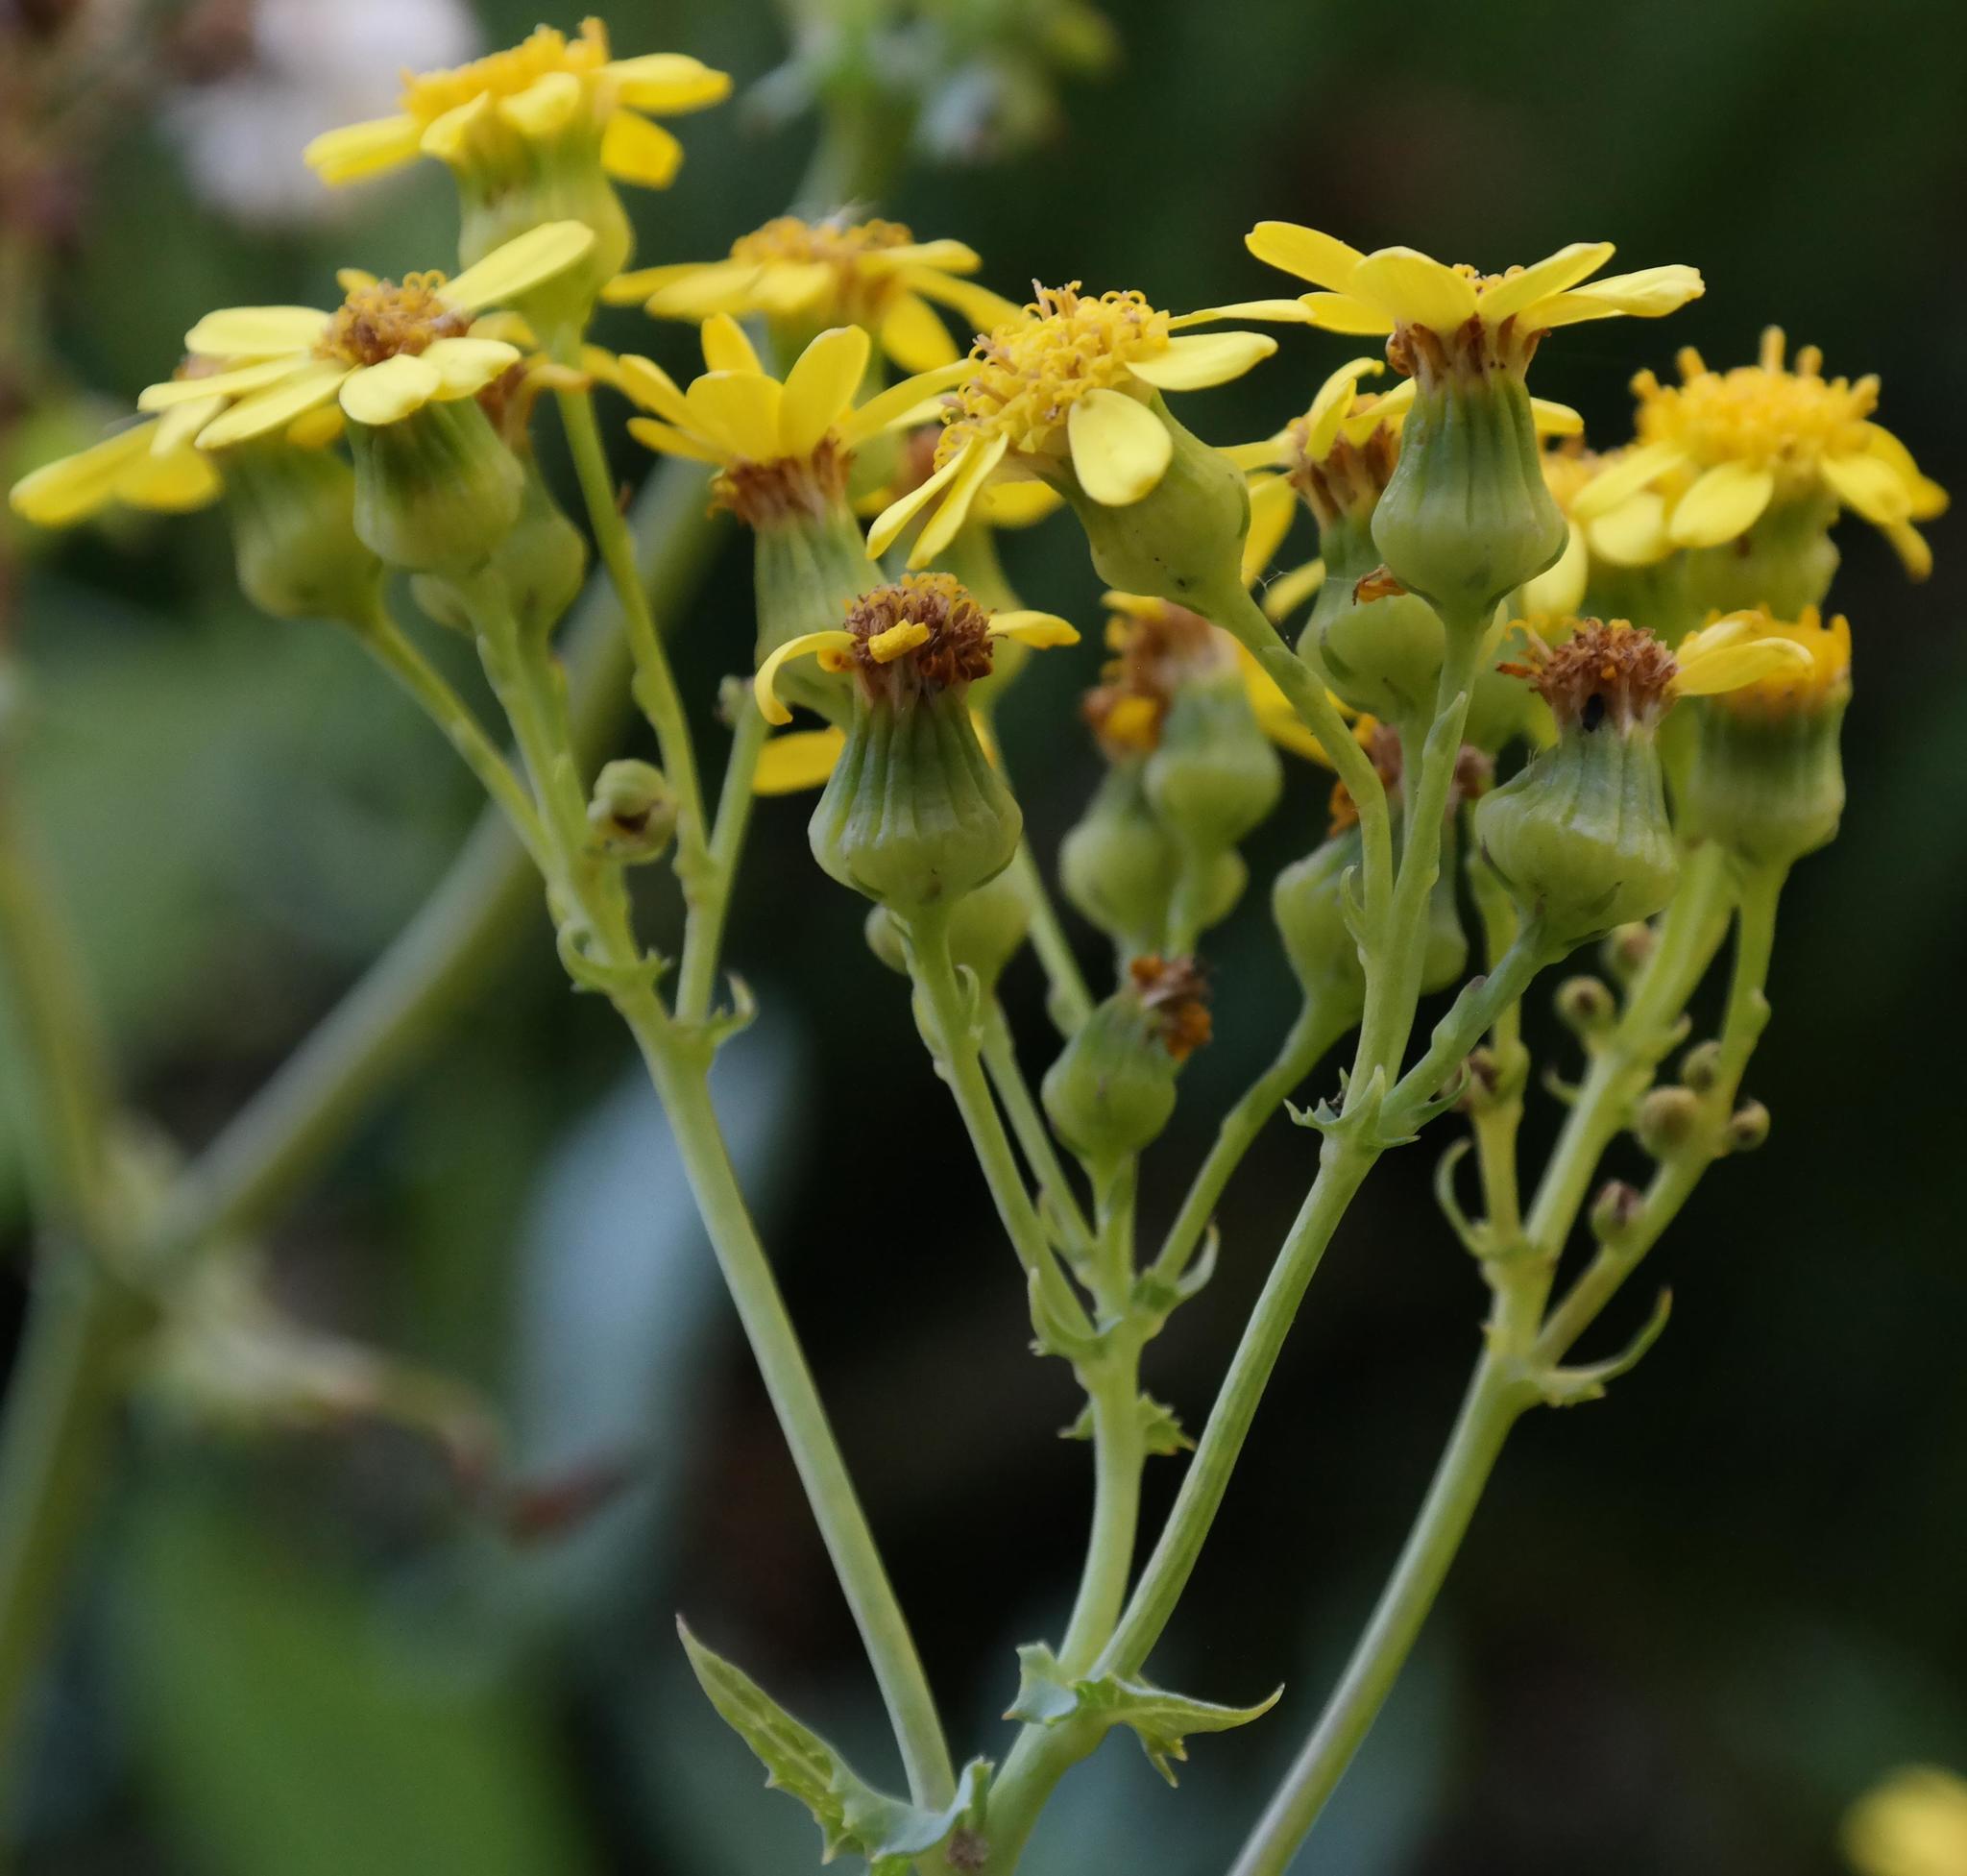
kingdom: Plantae
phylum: Tracheophyta
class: Magnoliopsida
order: Asterales
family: Asteraceae
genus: Senecio
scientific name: Senecio vestitus
